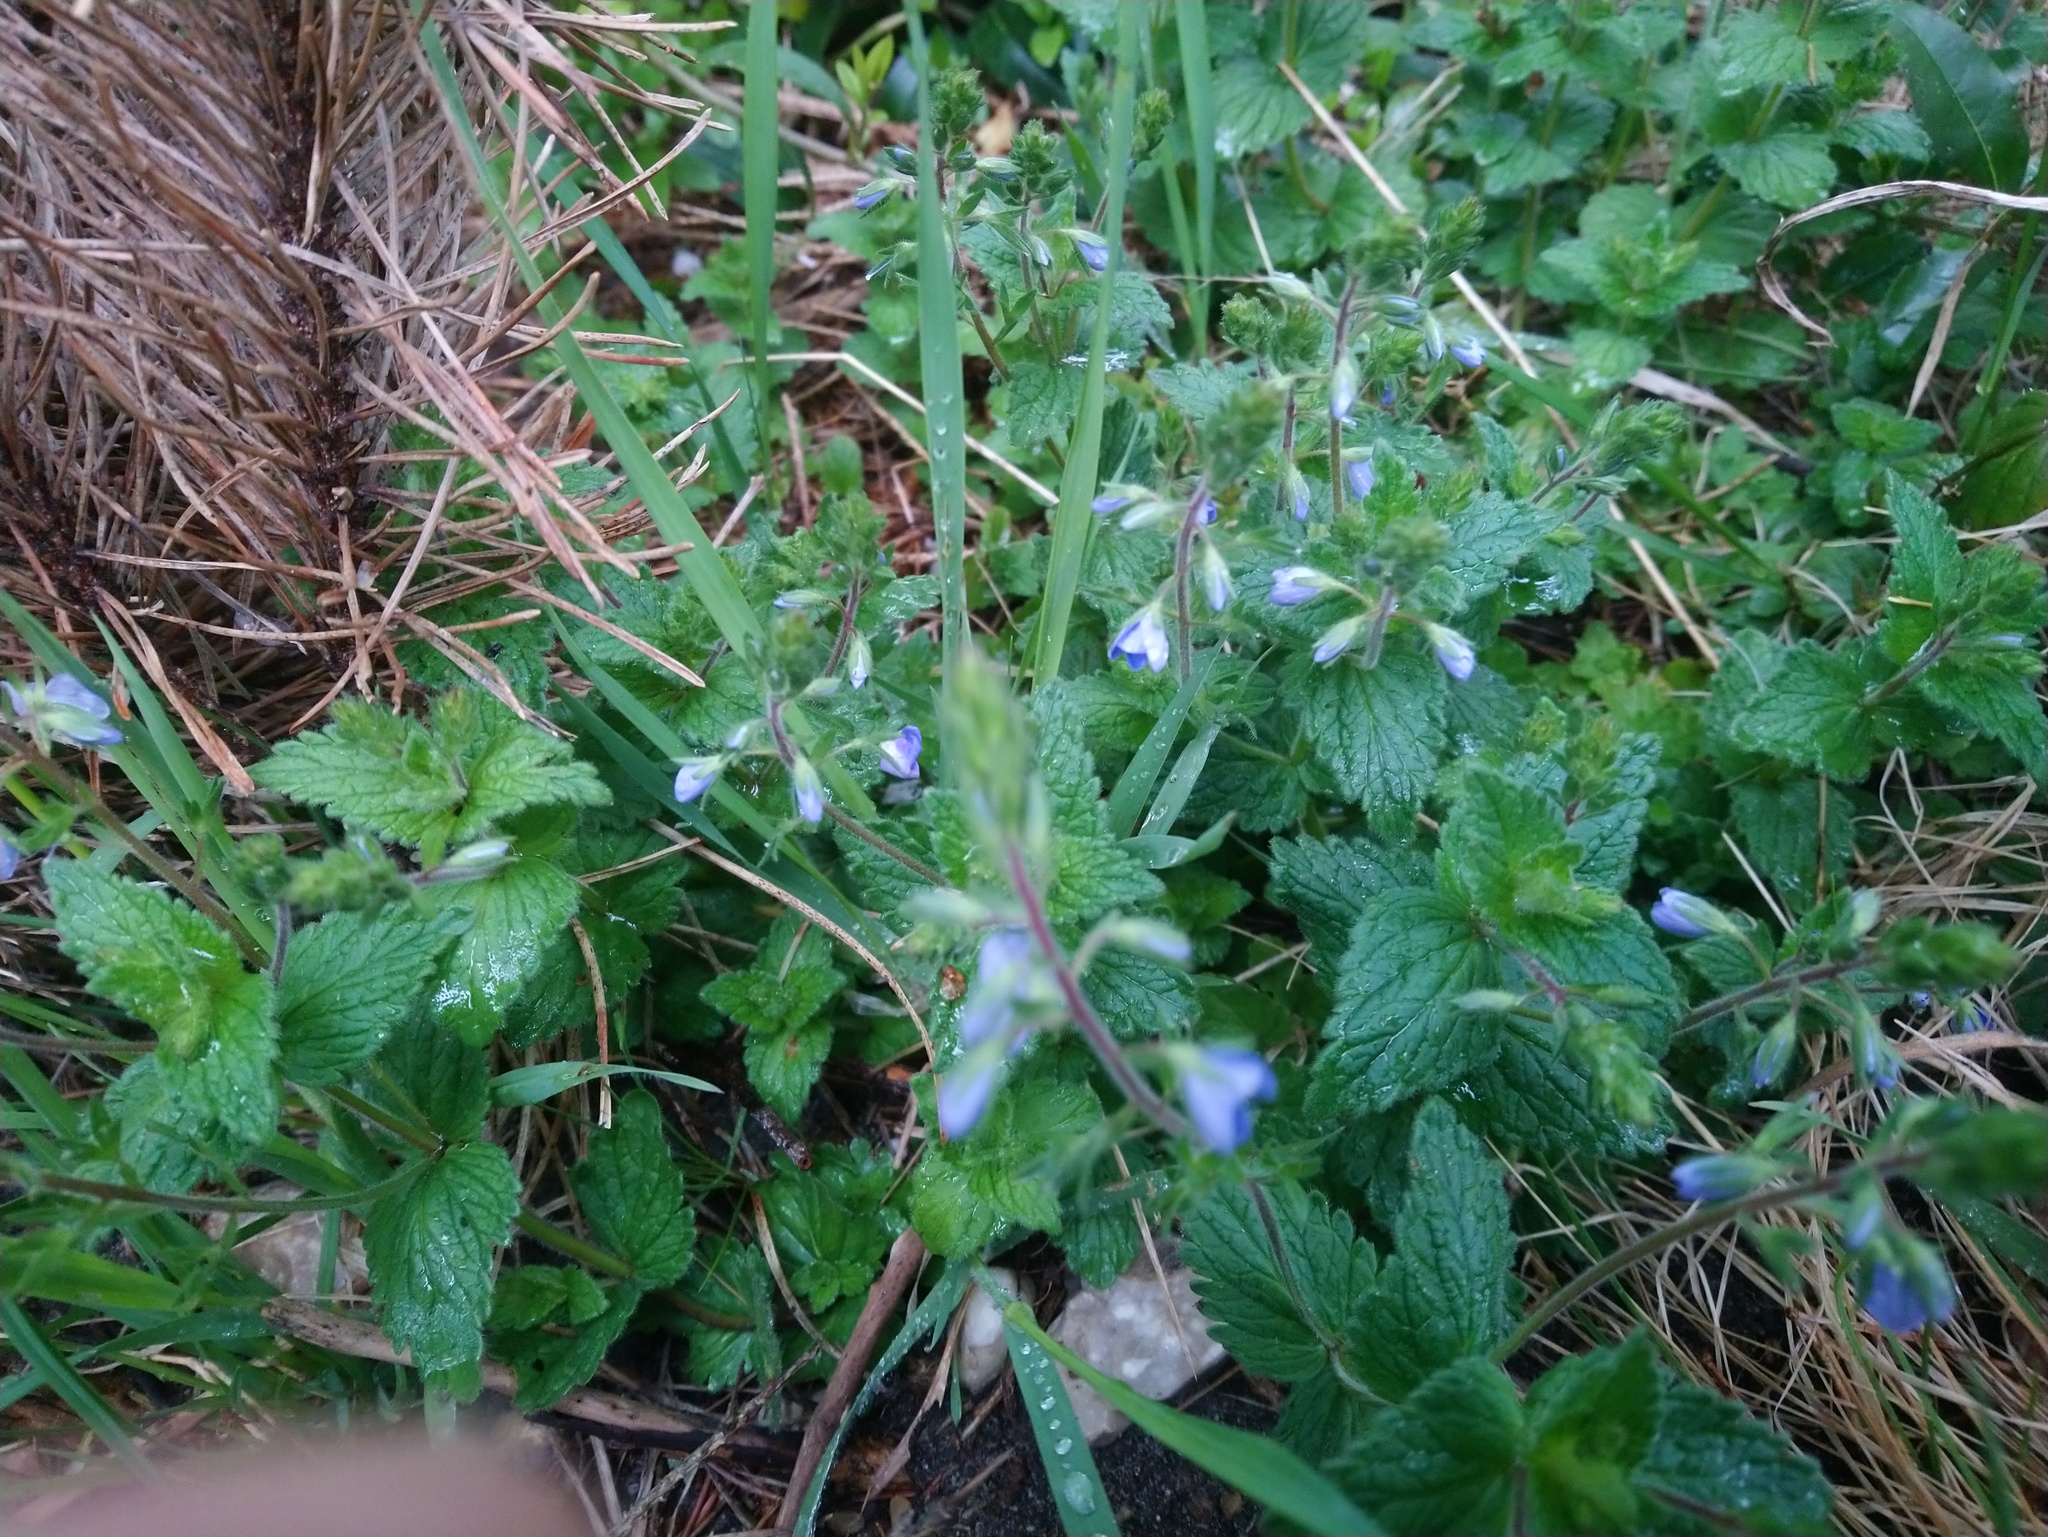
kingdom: Plantae
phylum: Tracheophyta
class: Magnoliopsida
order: Lamiales
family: Plantaginaceae
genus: Veronica
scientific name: Veronica chamaedrys
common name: Germander speedwell
